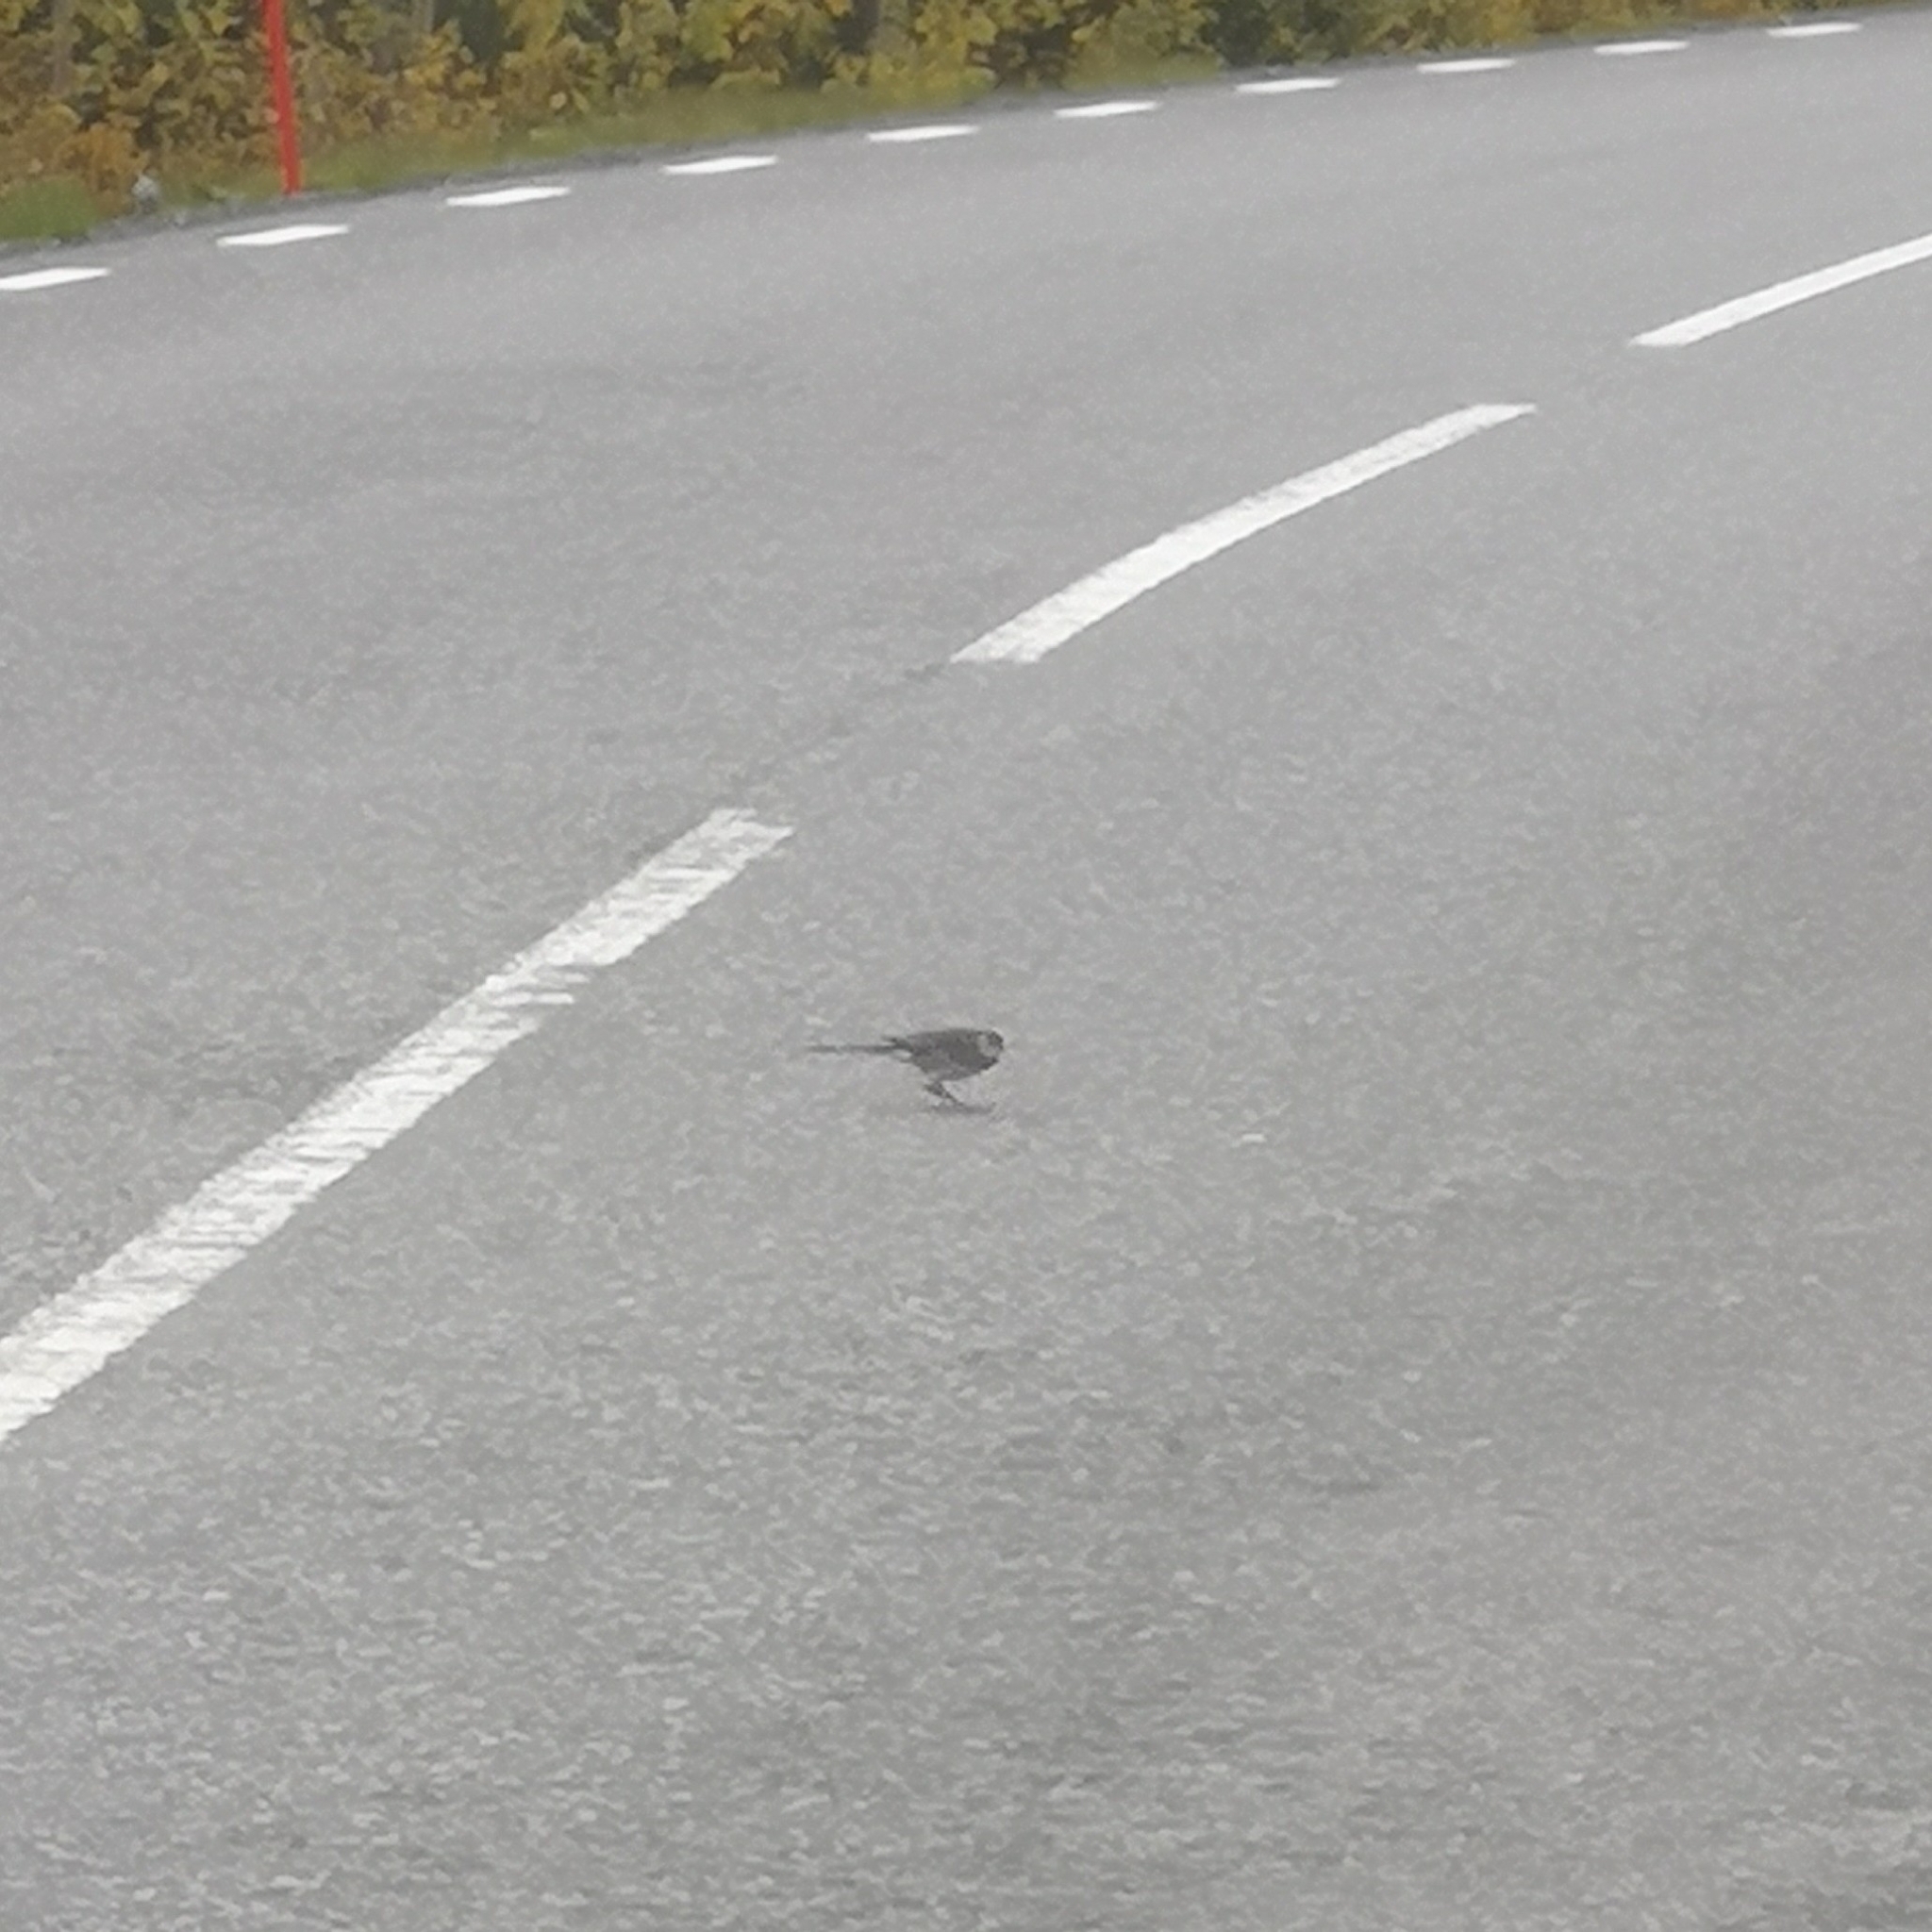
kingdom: Animalia
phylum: Chordata
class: Aves
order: Passeriformes
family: Motacillidae
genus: Motacilla
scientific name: Motacilla alba
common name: White wagtail
